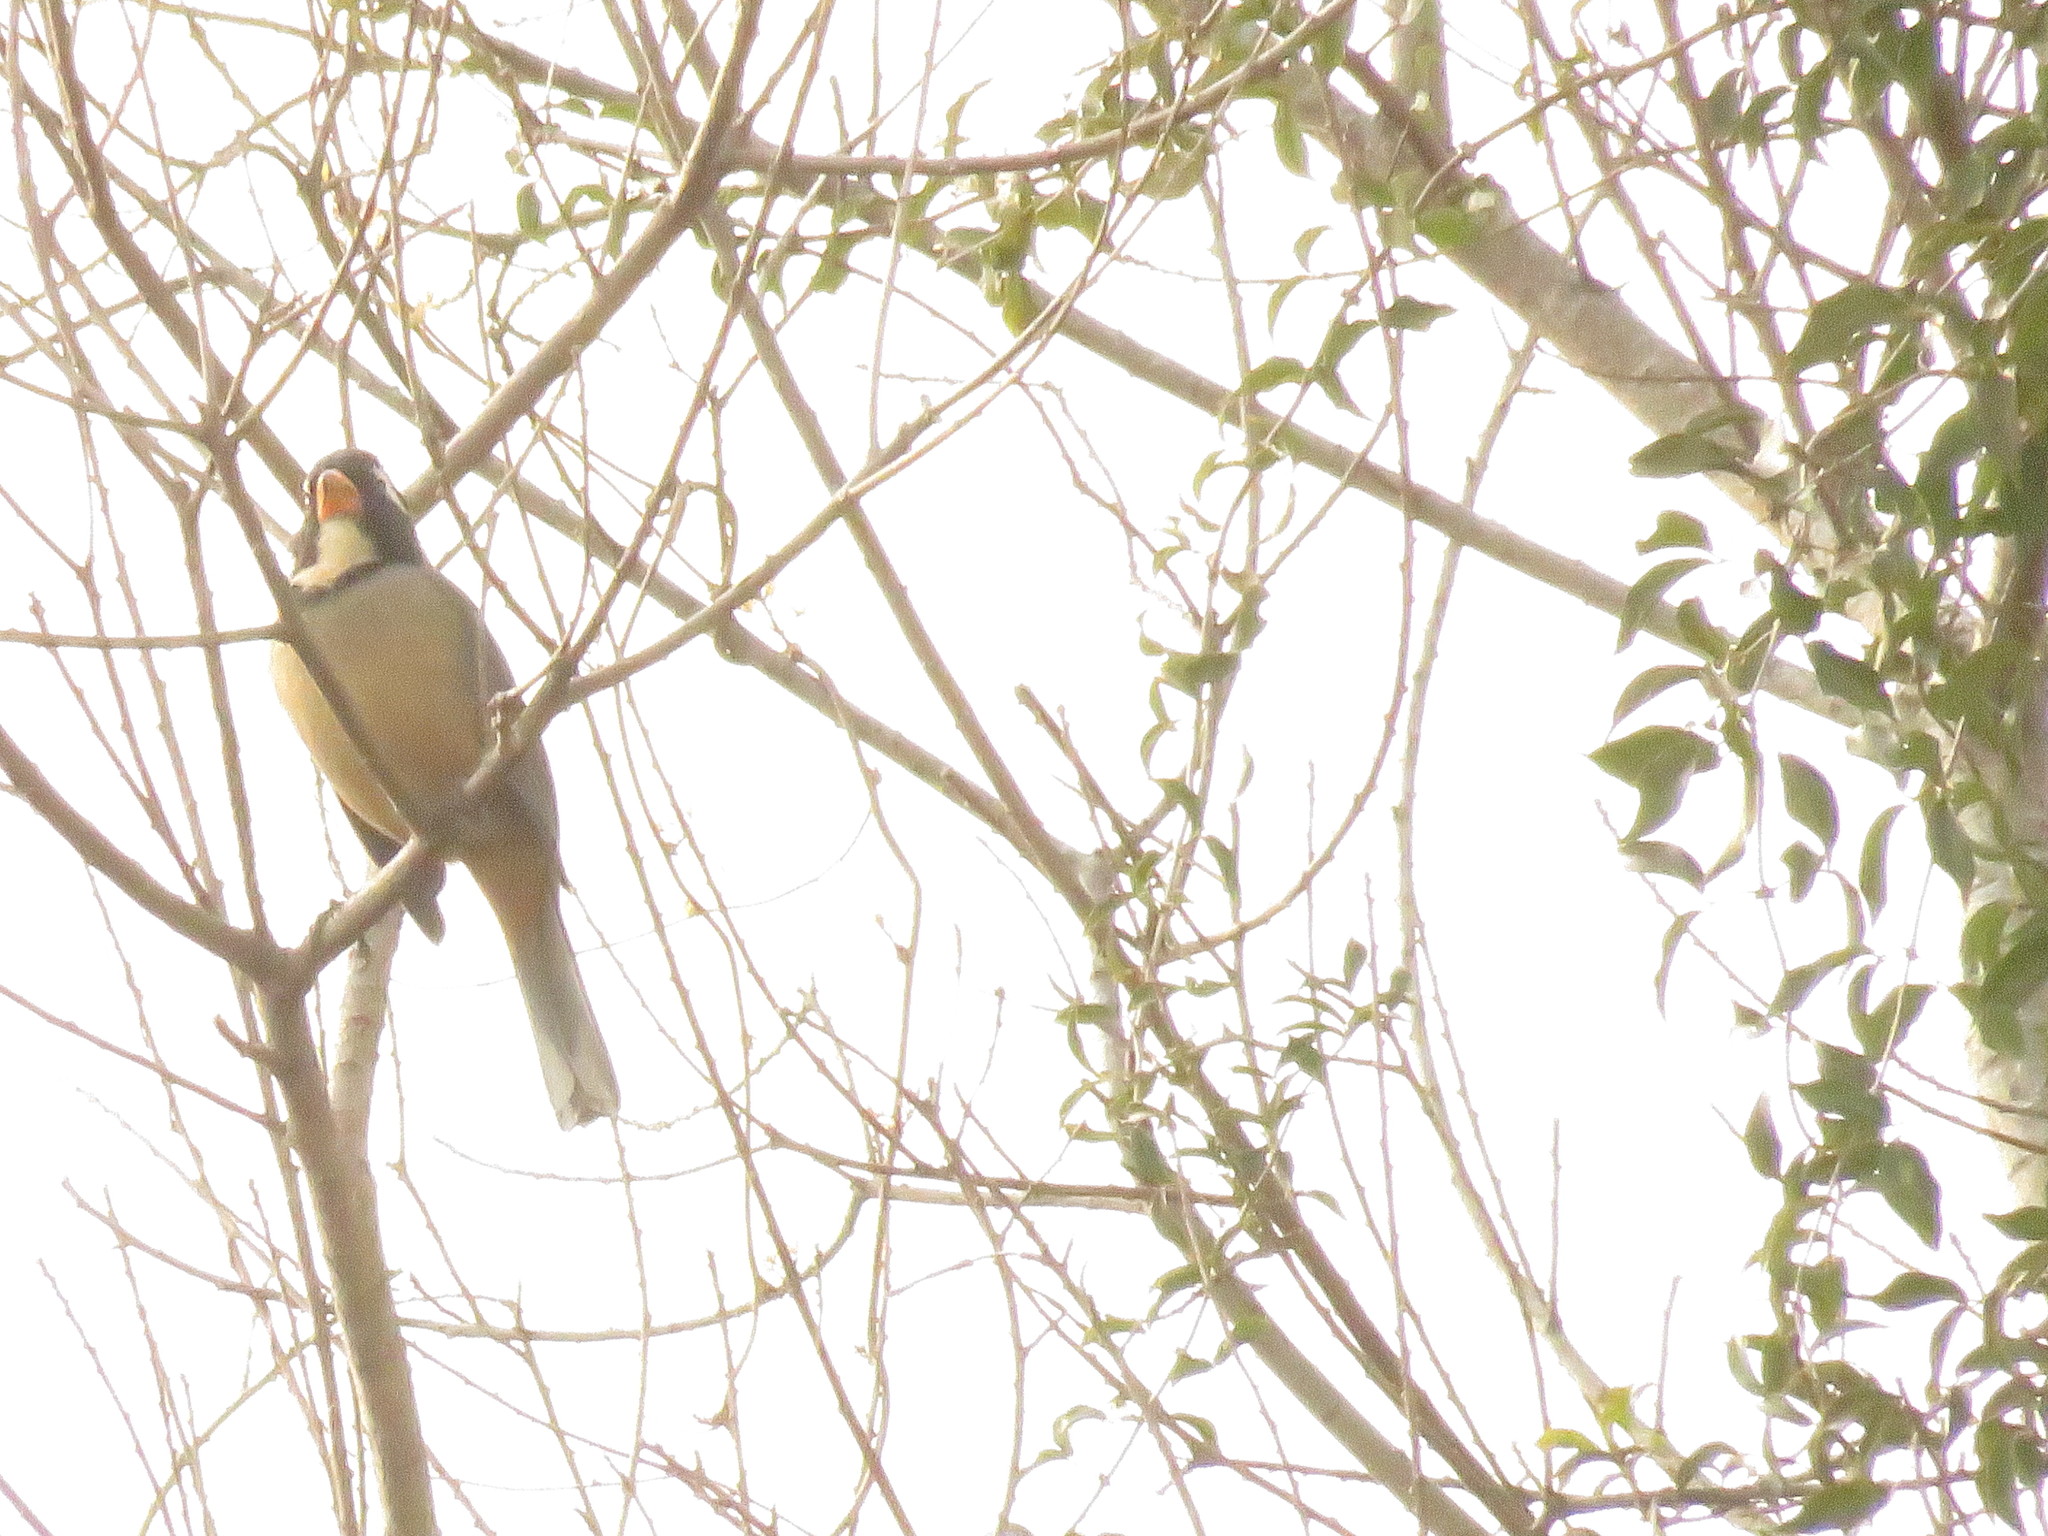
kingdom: Animalia
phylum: Chordata
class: Aves
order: Passeriformes
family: Thraupidae
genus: Saltator
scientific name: Saltator aurantiirostris
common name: Golden-billed saltator
